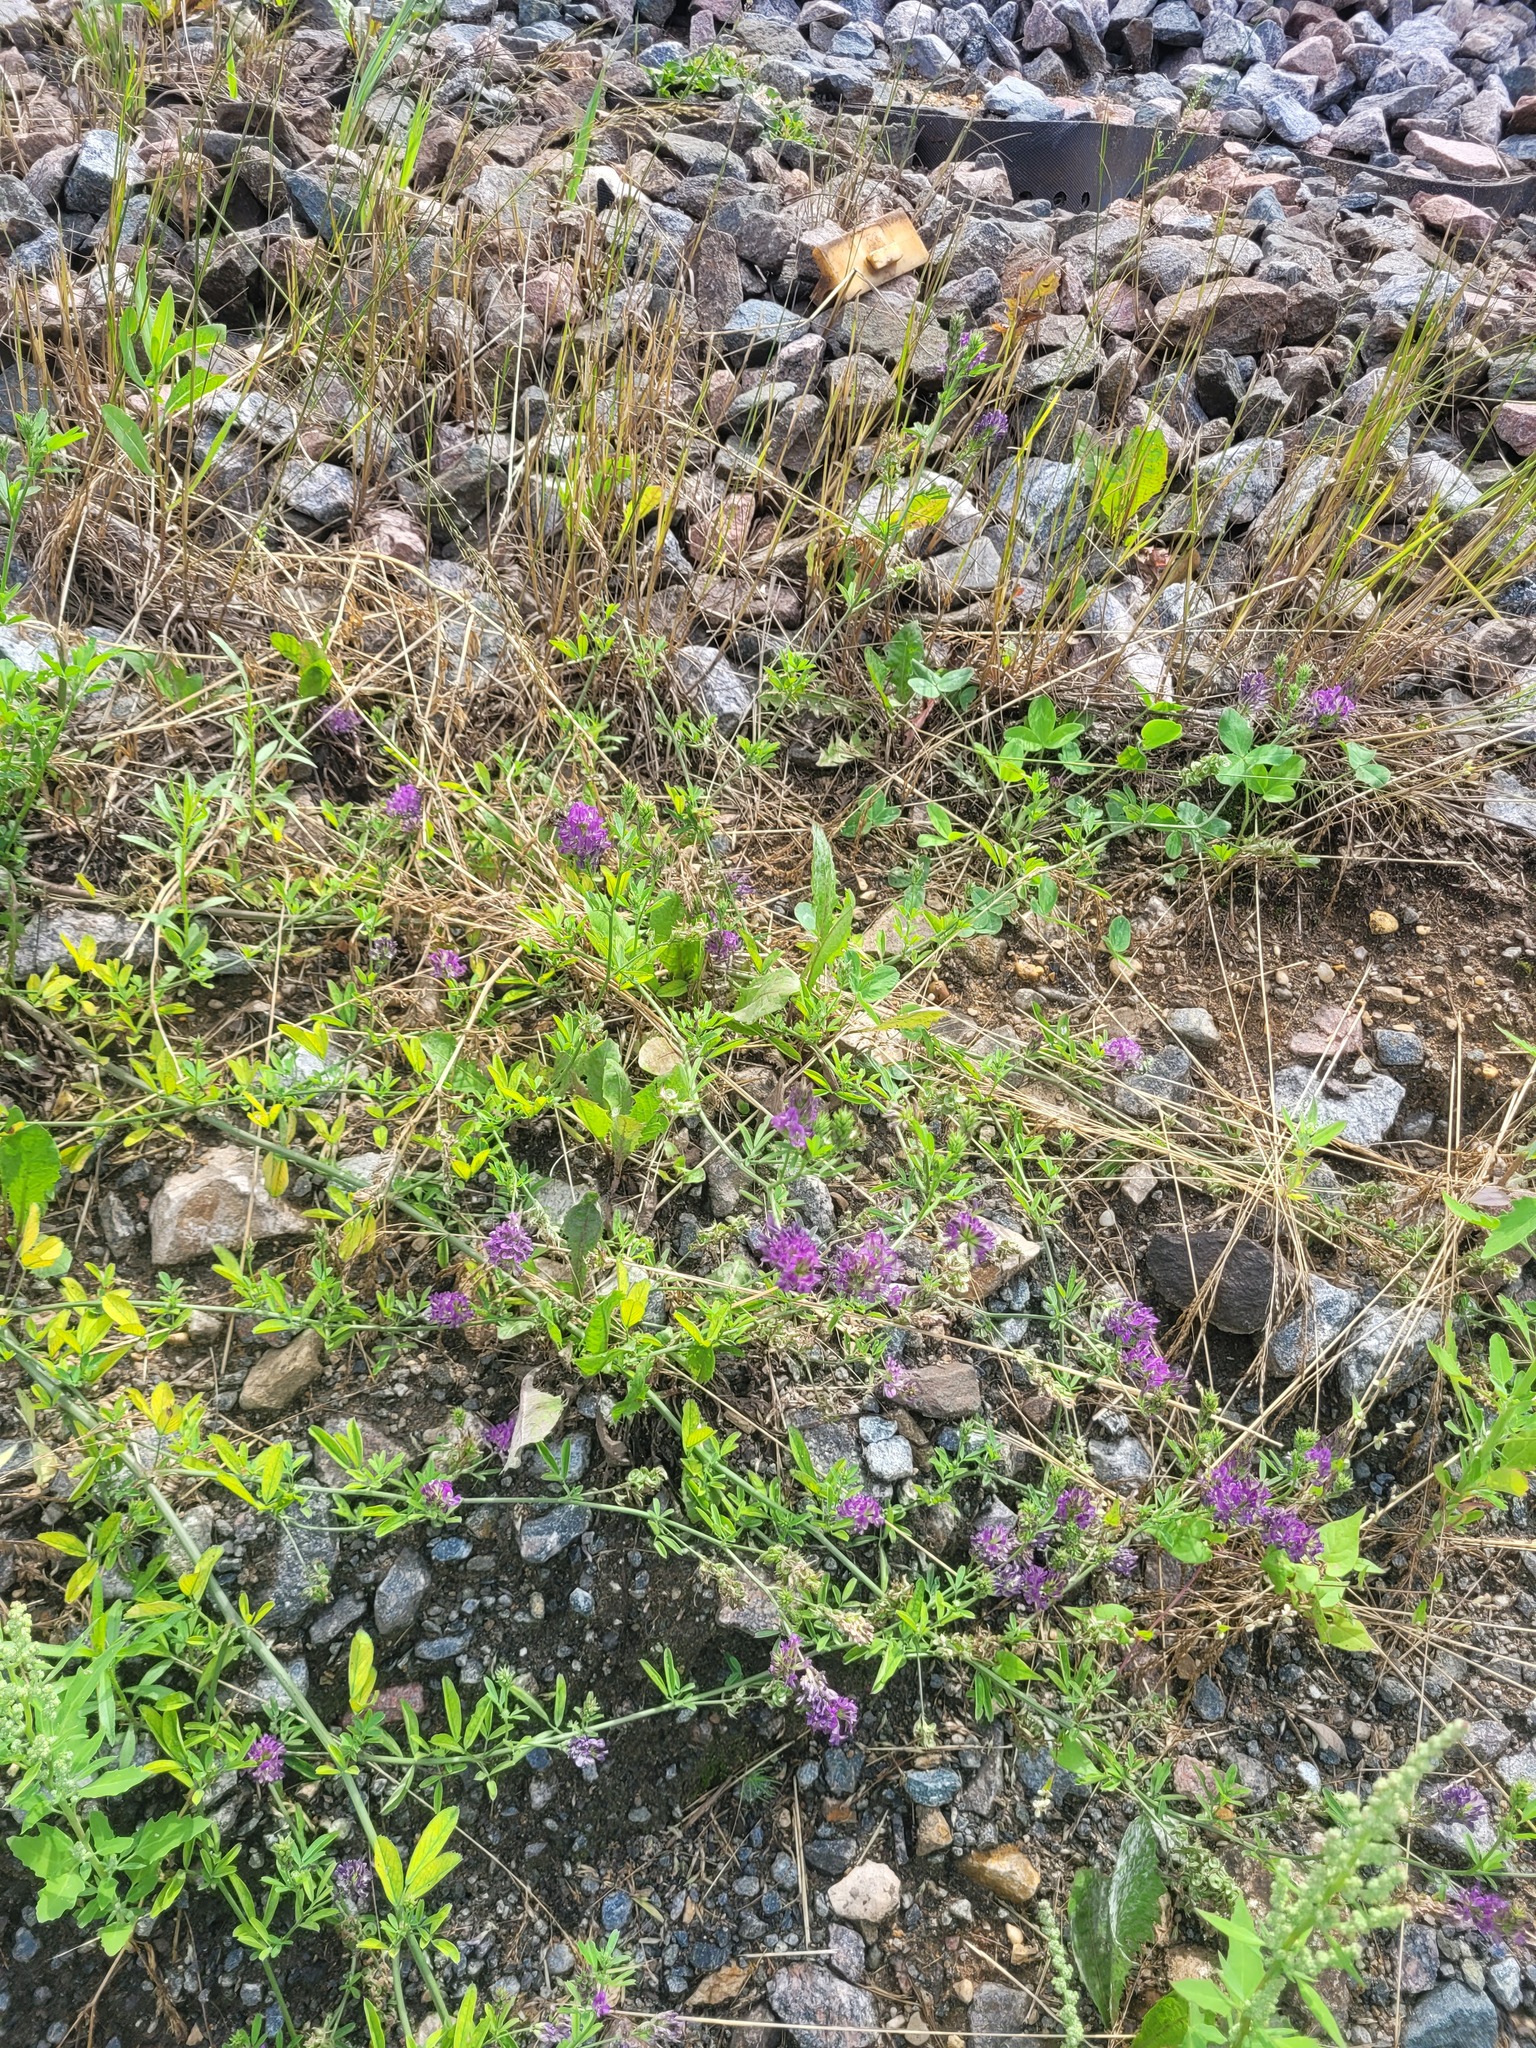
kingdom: Plantae
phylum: Tracheophyta
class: Magnoliopsida
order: Fabales
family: Fabaceae
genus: Medicago
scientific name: Medicago varia
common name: Sand lucerne
